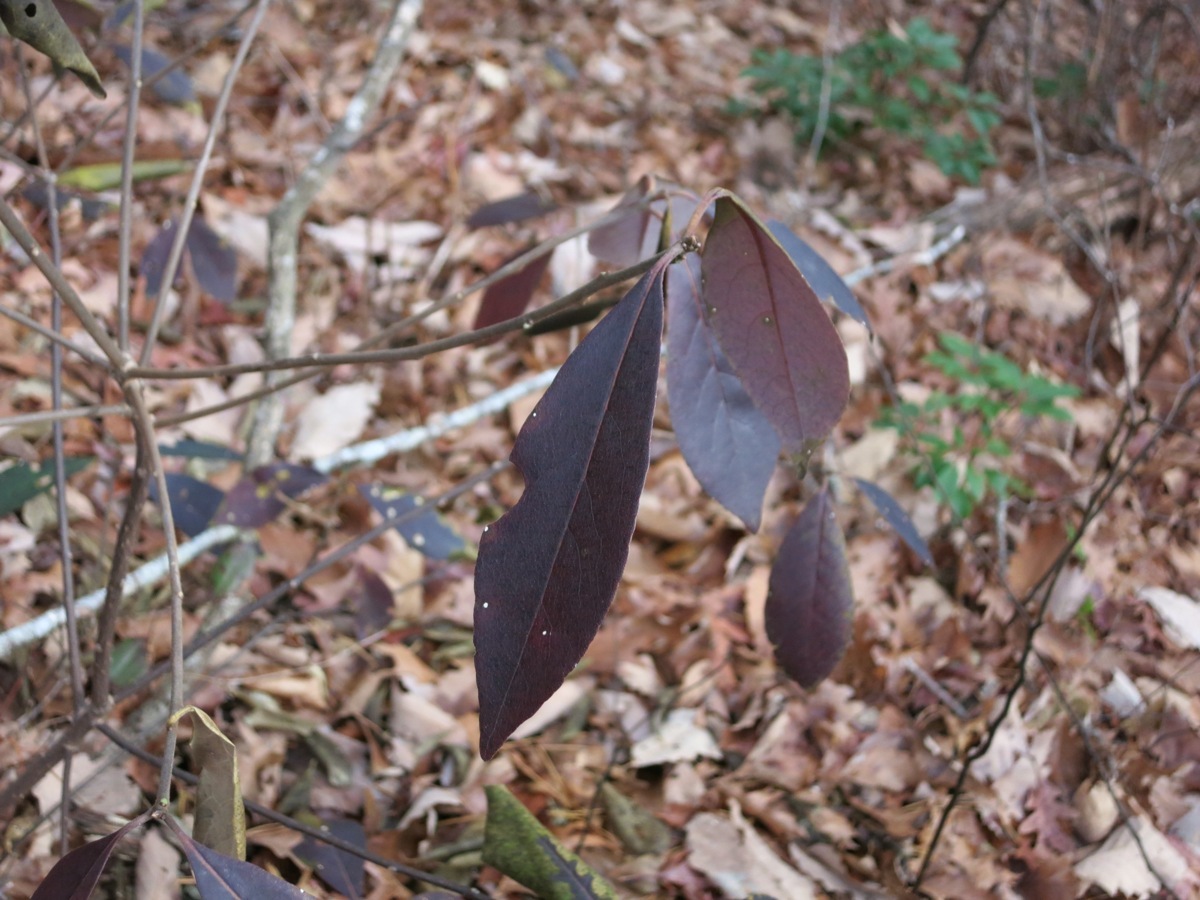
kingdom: Plantae
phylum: Tracheophyta
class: Magnoliopsida
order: Ericales
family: Symplocaceae
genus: Symplocos
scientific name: Symplocos tinctoria
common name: Horse-sugar
